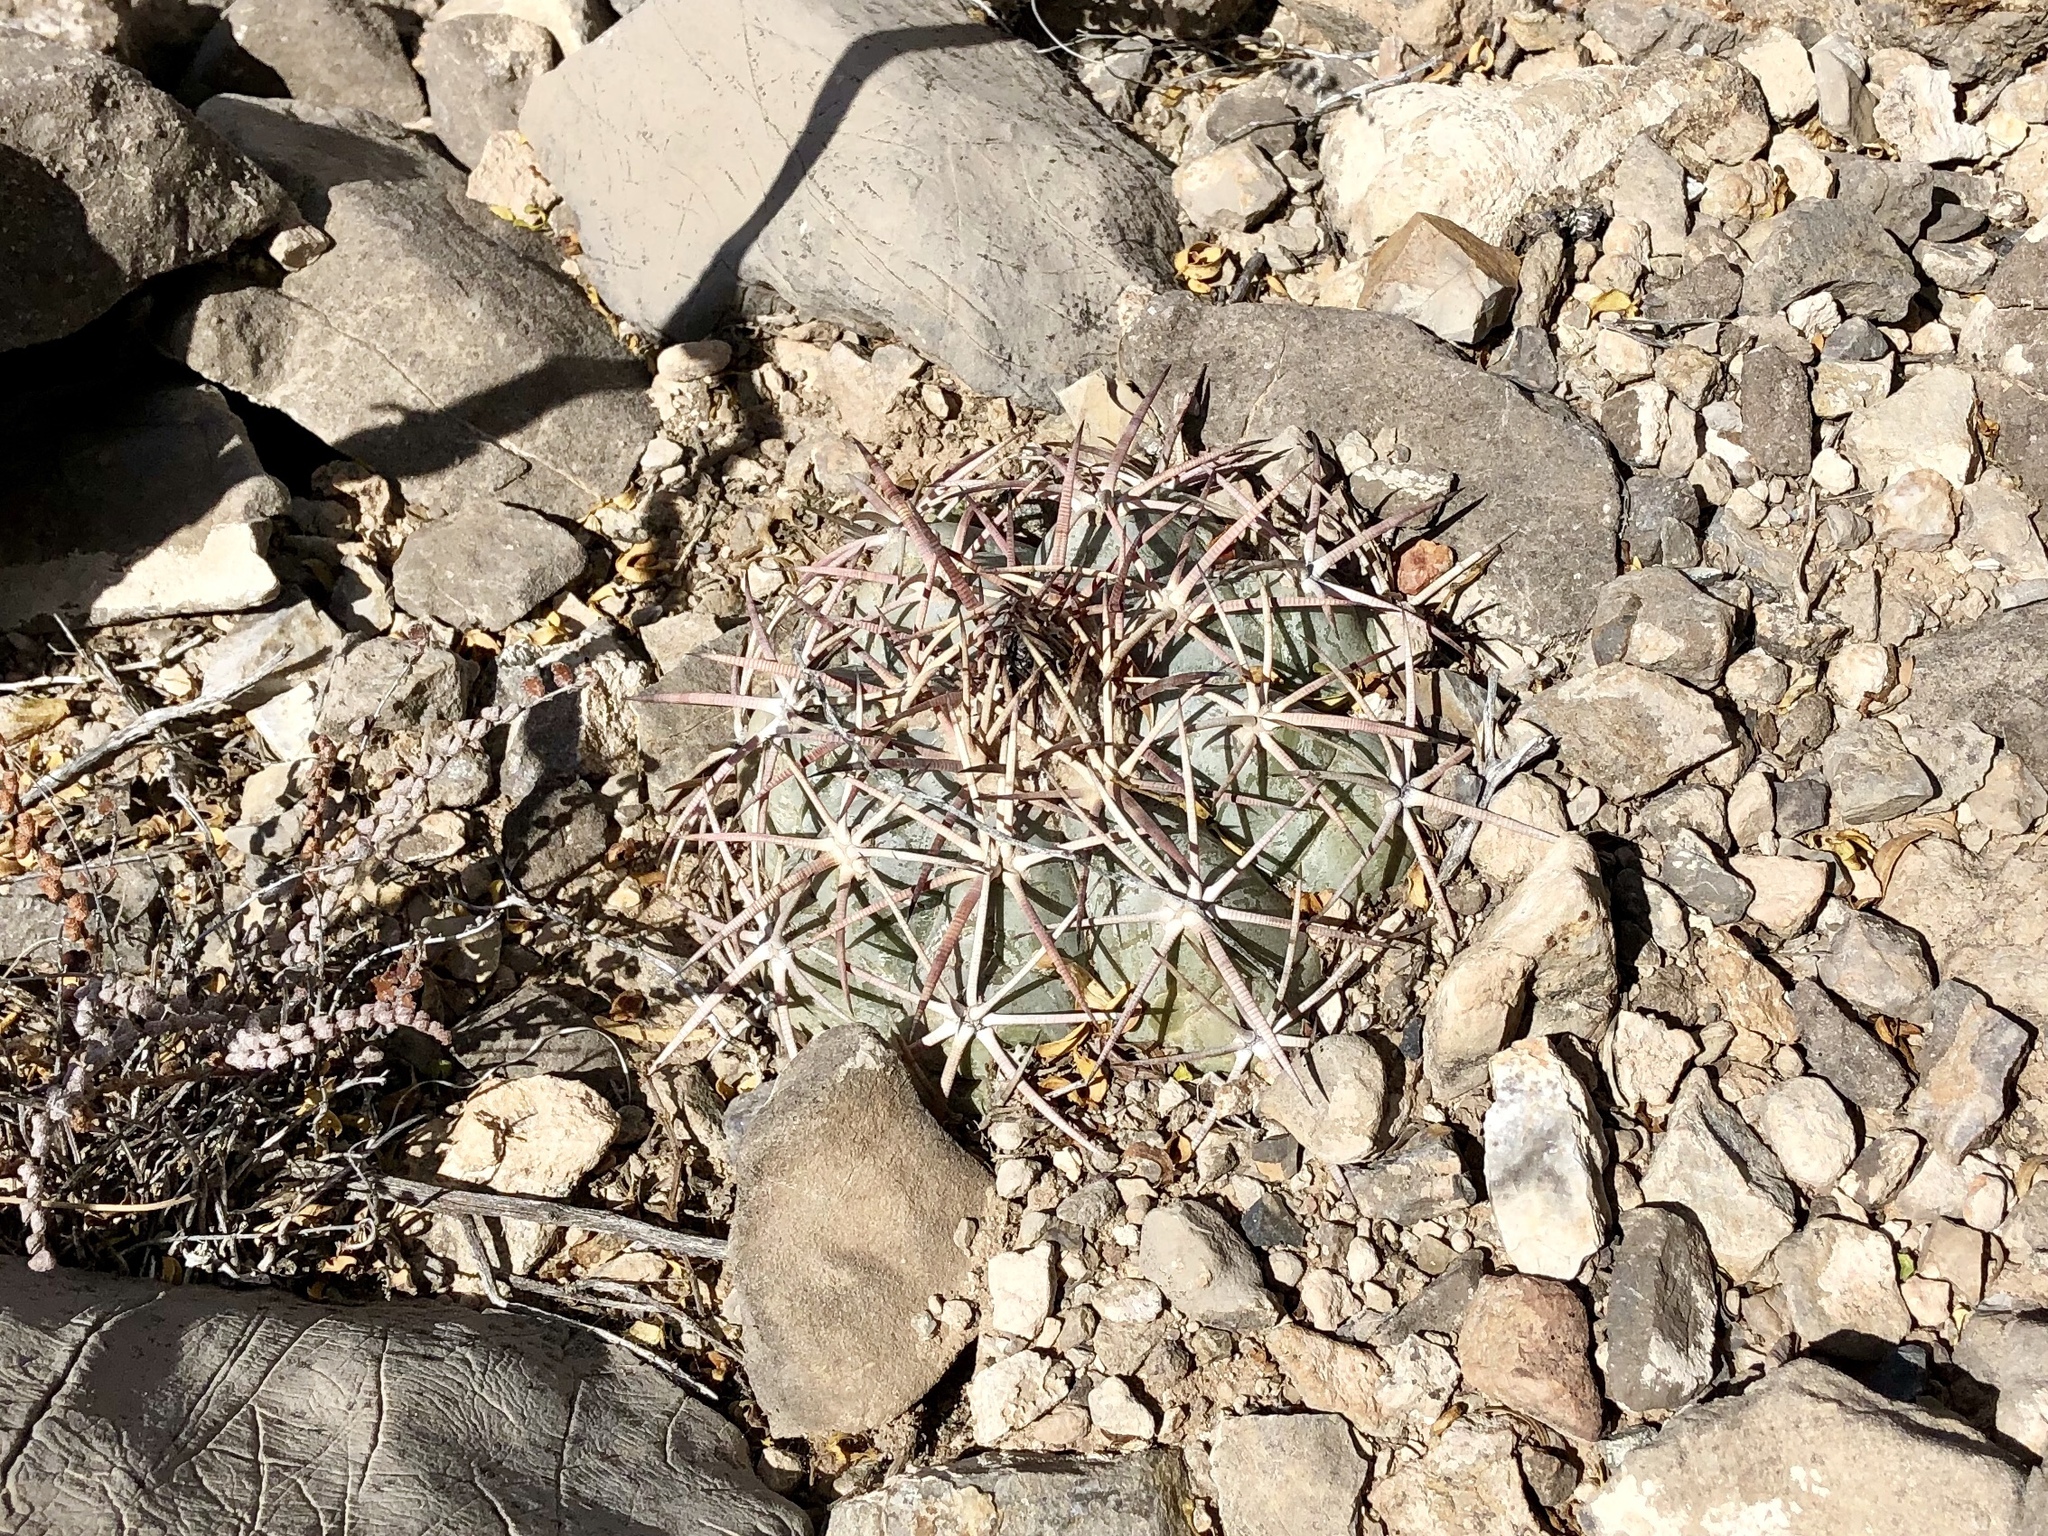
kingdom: Plantae
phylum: Tracheophyta
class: Magnoliopsida
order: Caryophyllales
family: Cactaceae
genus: Echinocactus
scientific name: Echinocactus horizonthalonius
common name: Devilshead
